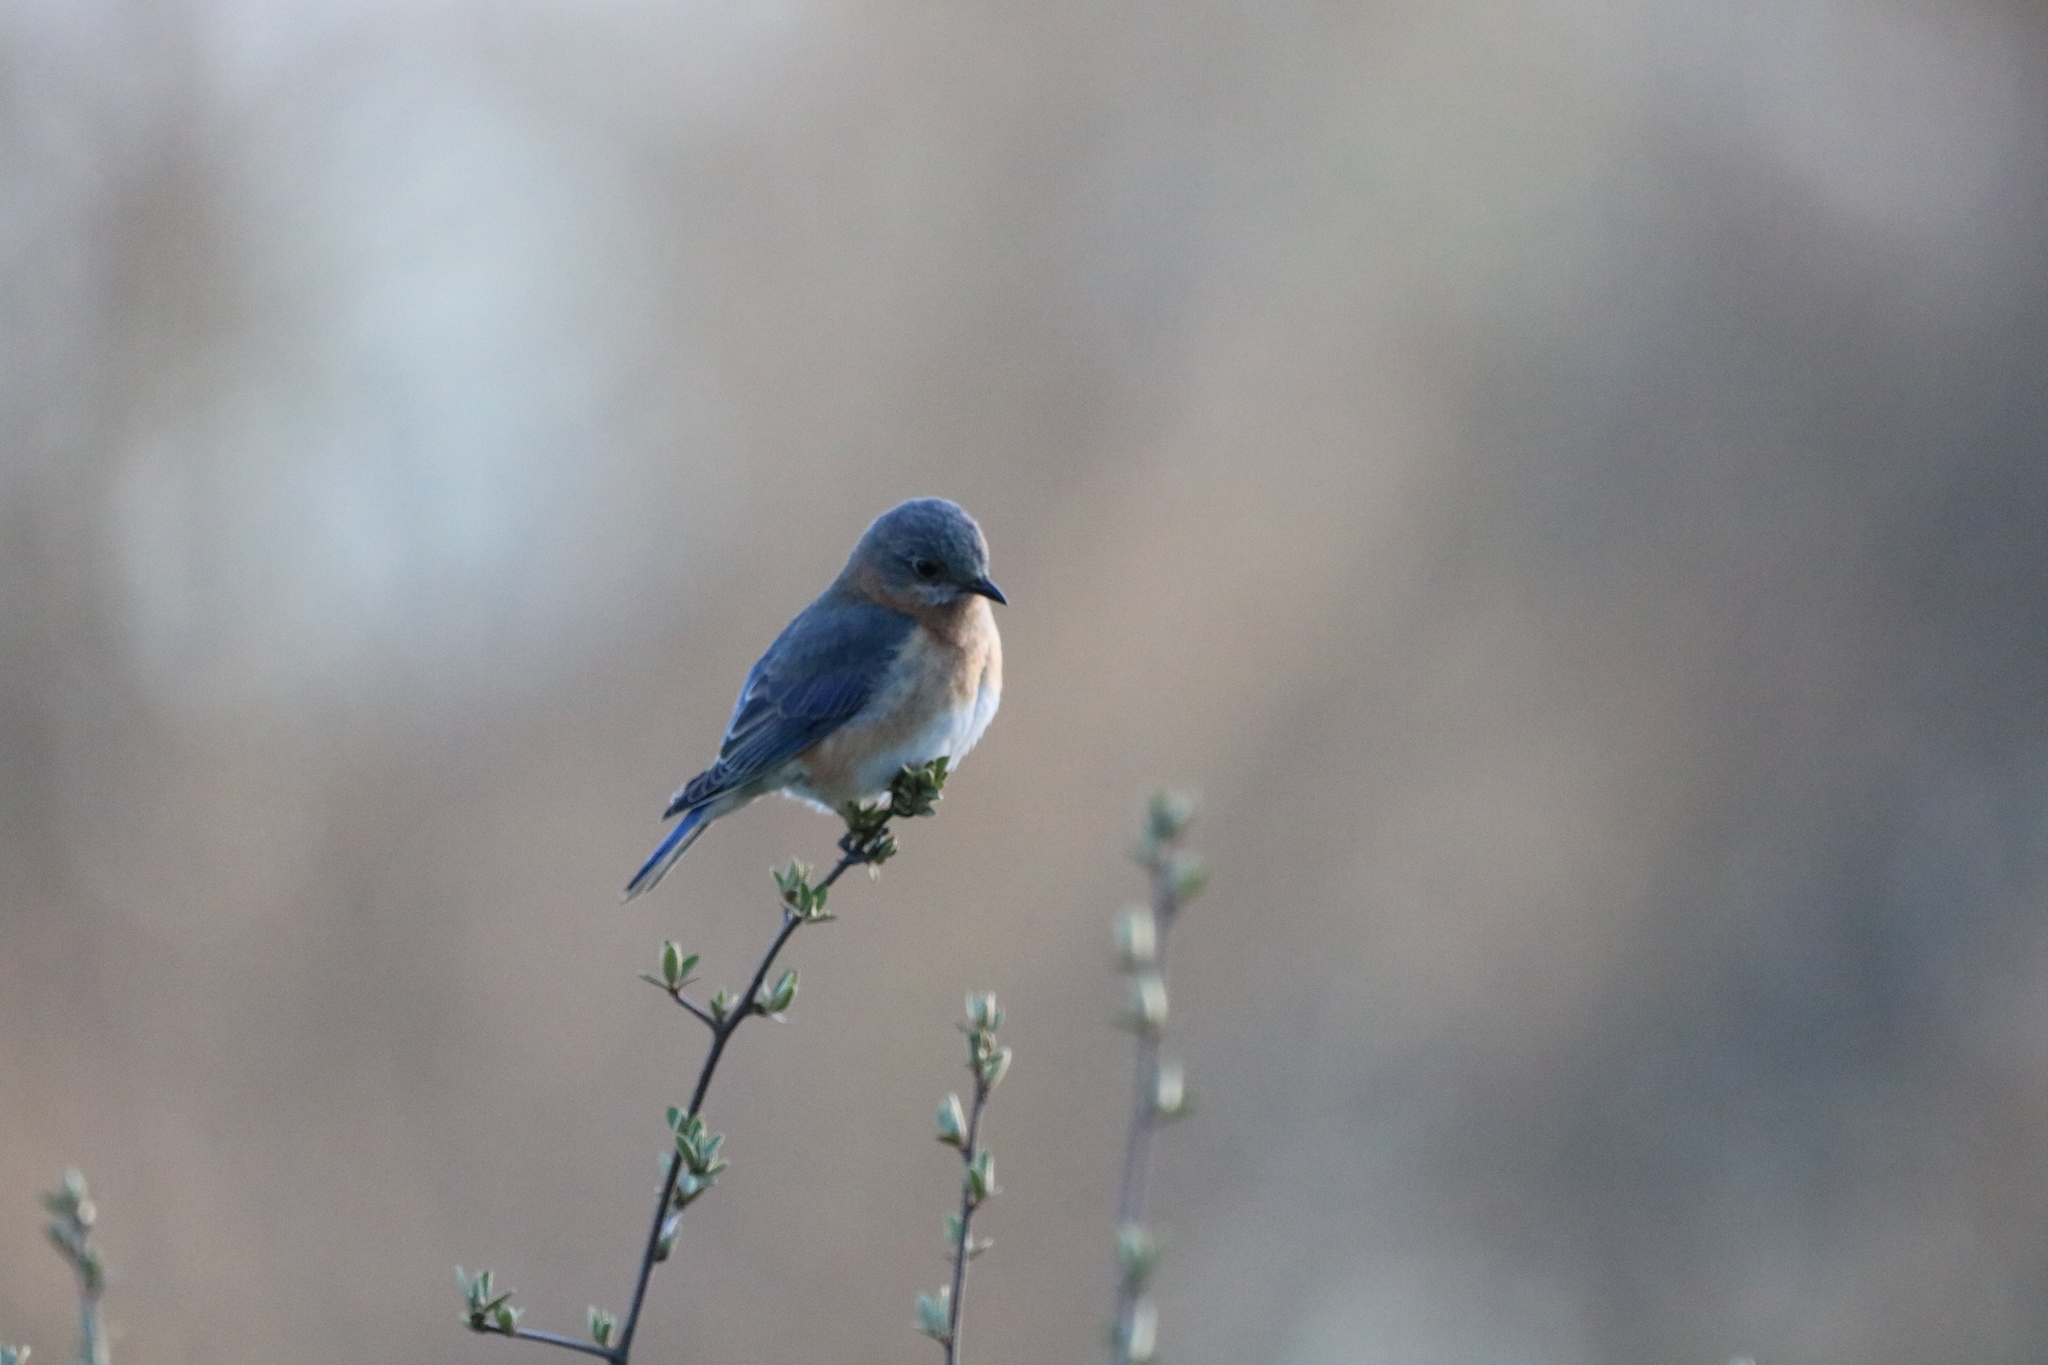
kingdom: Animalia
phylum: Chordata
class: Aves
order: Passeriformes
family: Turdidae
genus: Sialia
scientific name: Sialia sialis
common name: Eastern bluebird
